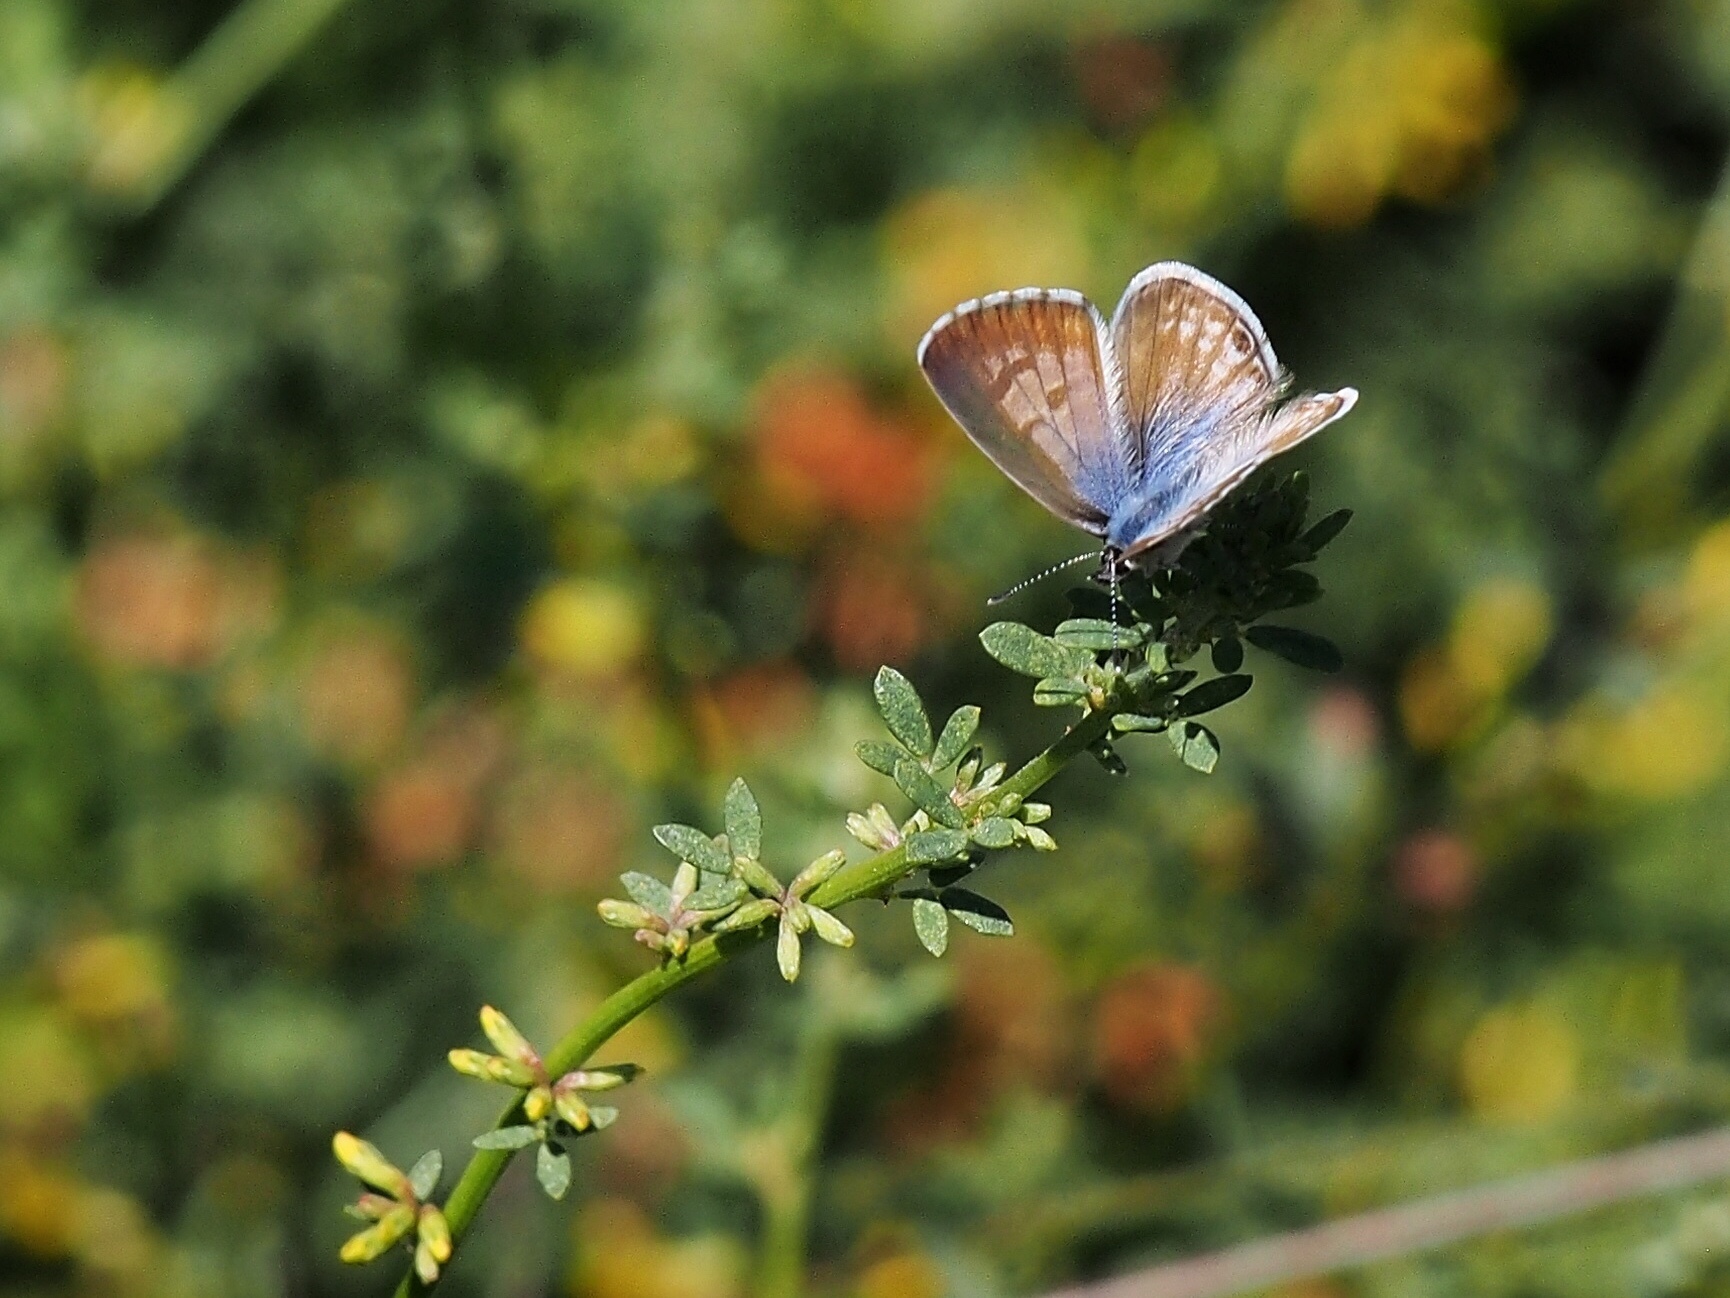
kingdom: Animalia
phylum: Arthropoda
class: Insecta
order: Lepidoptera
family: Lycaenidae
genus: Leptotes
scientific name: Leptotes marina
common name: Marine blue
